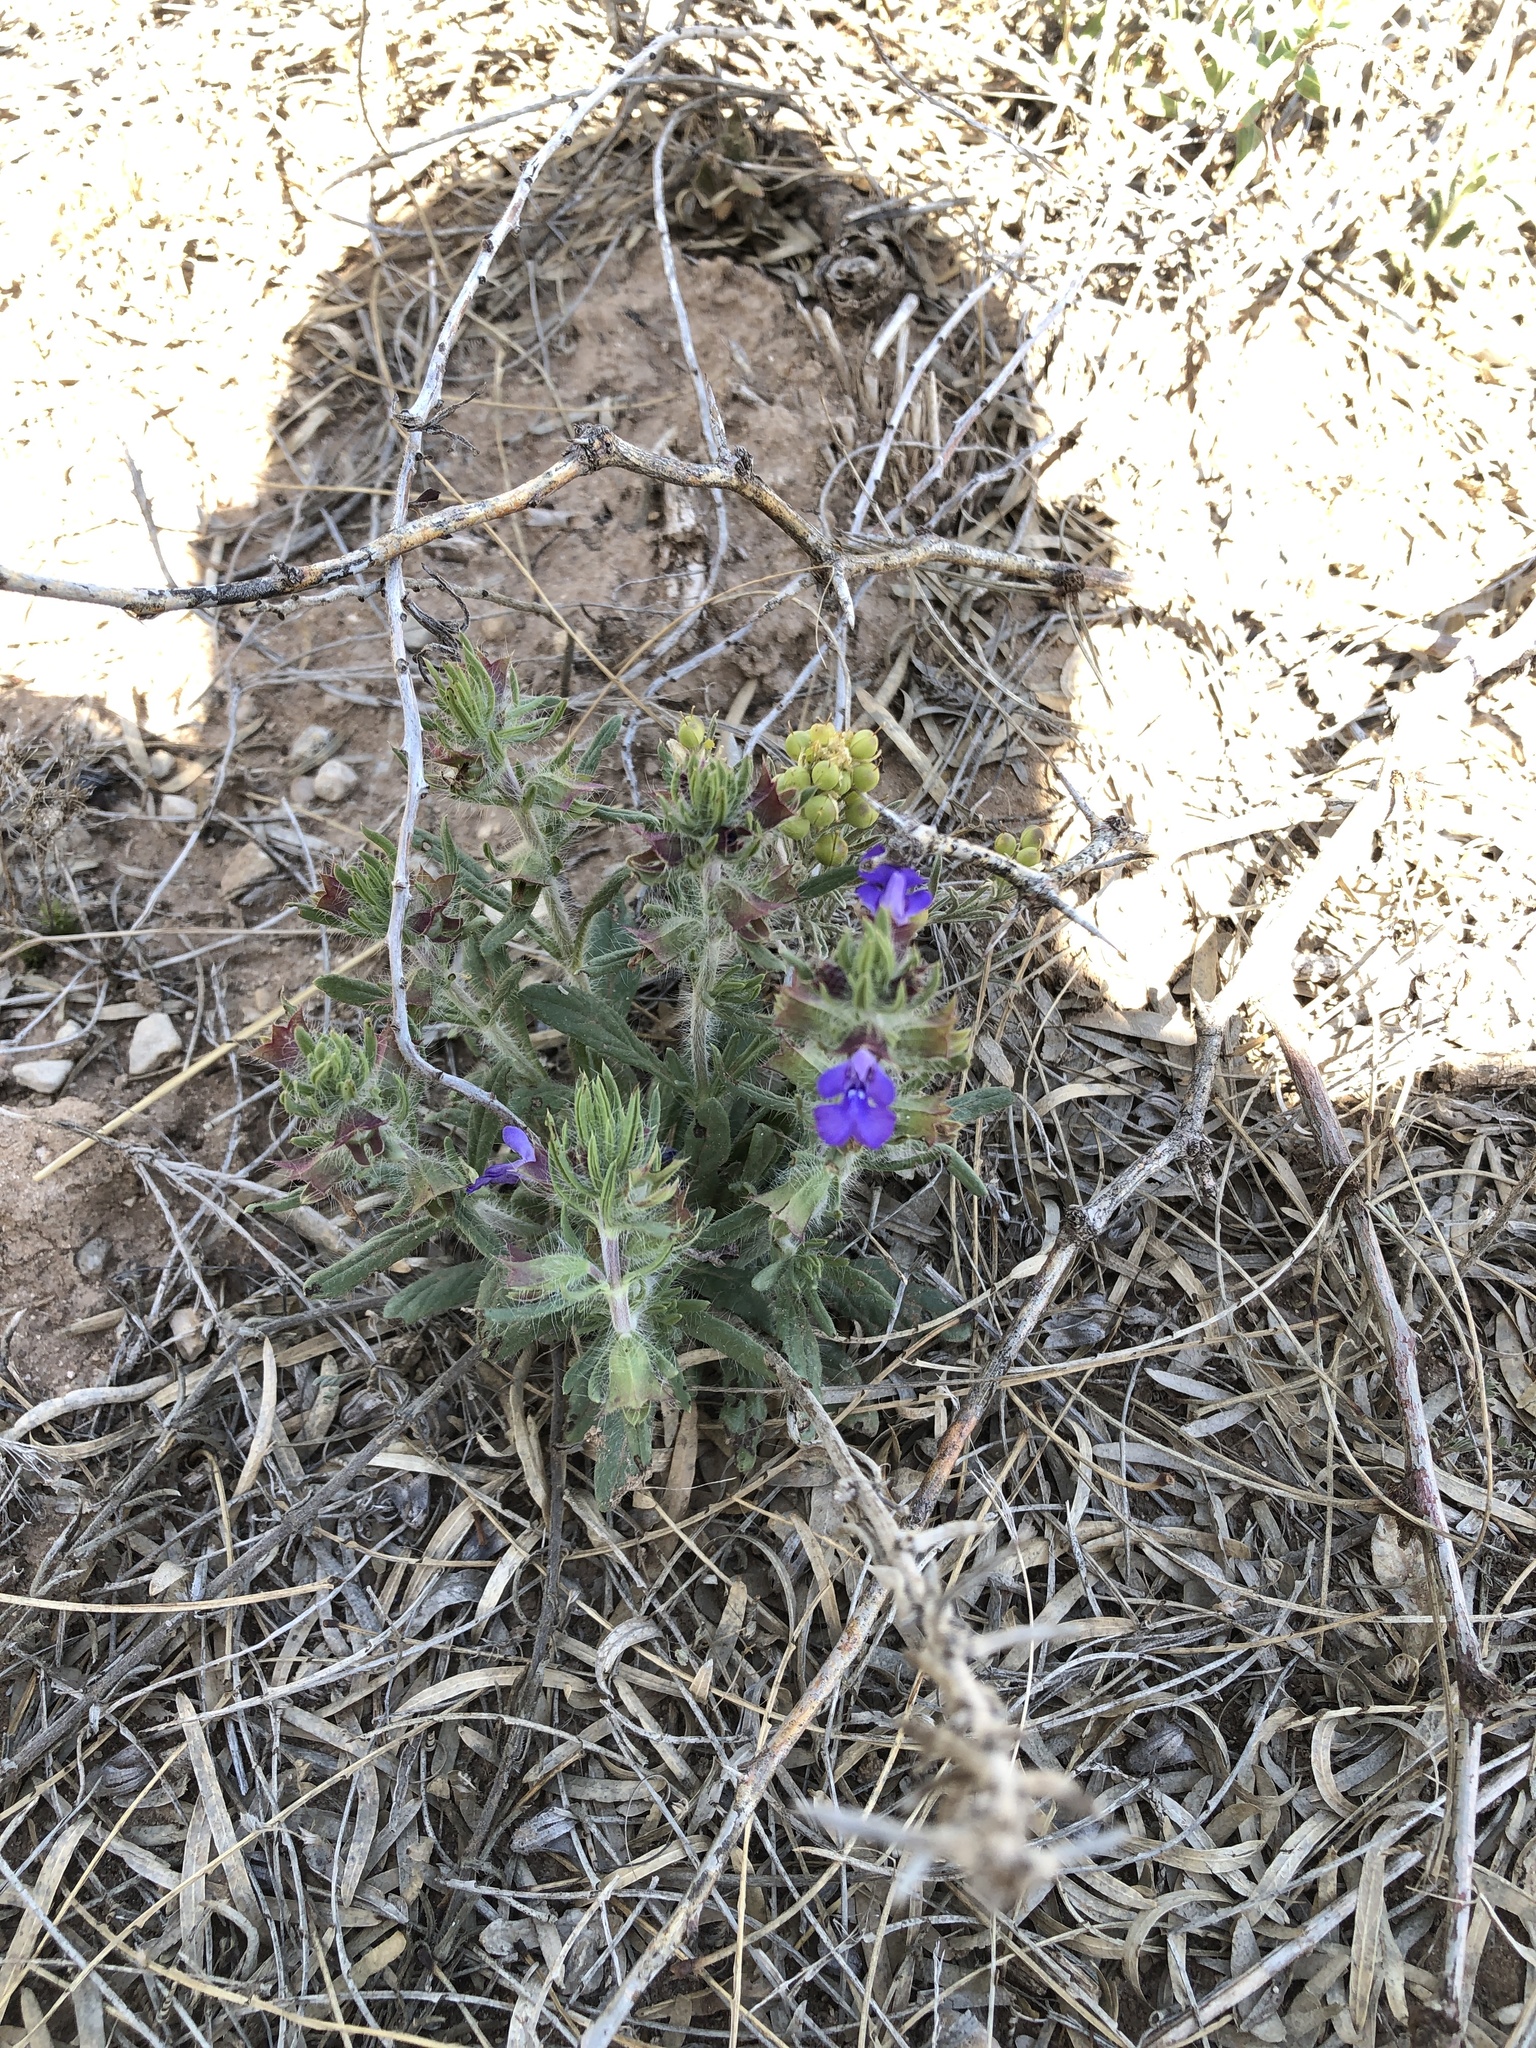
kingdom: Plantae
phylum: Tracheophyta
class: Magnoliopsida
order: Lamiales
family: Lamiaceae
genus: Salvia
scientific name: Salvia texana
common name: Texas sage
